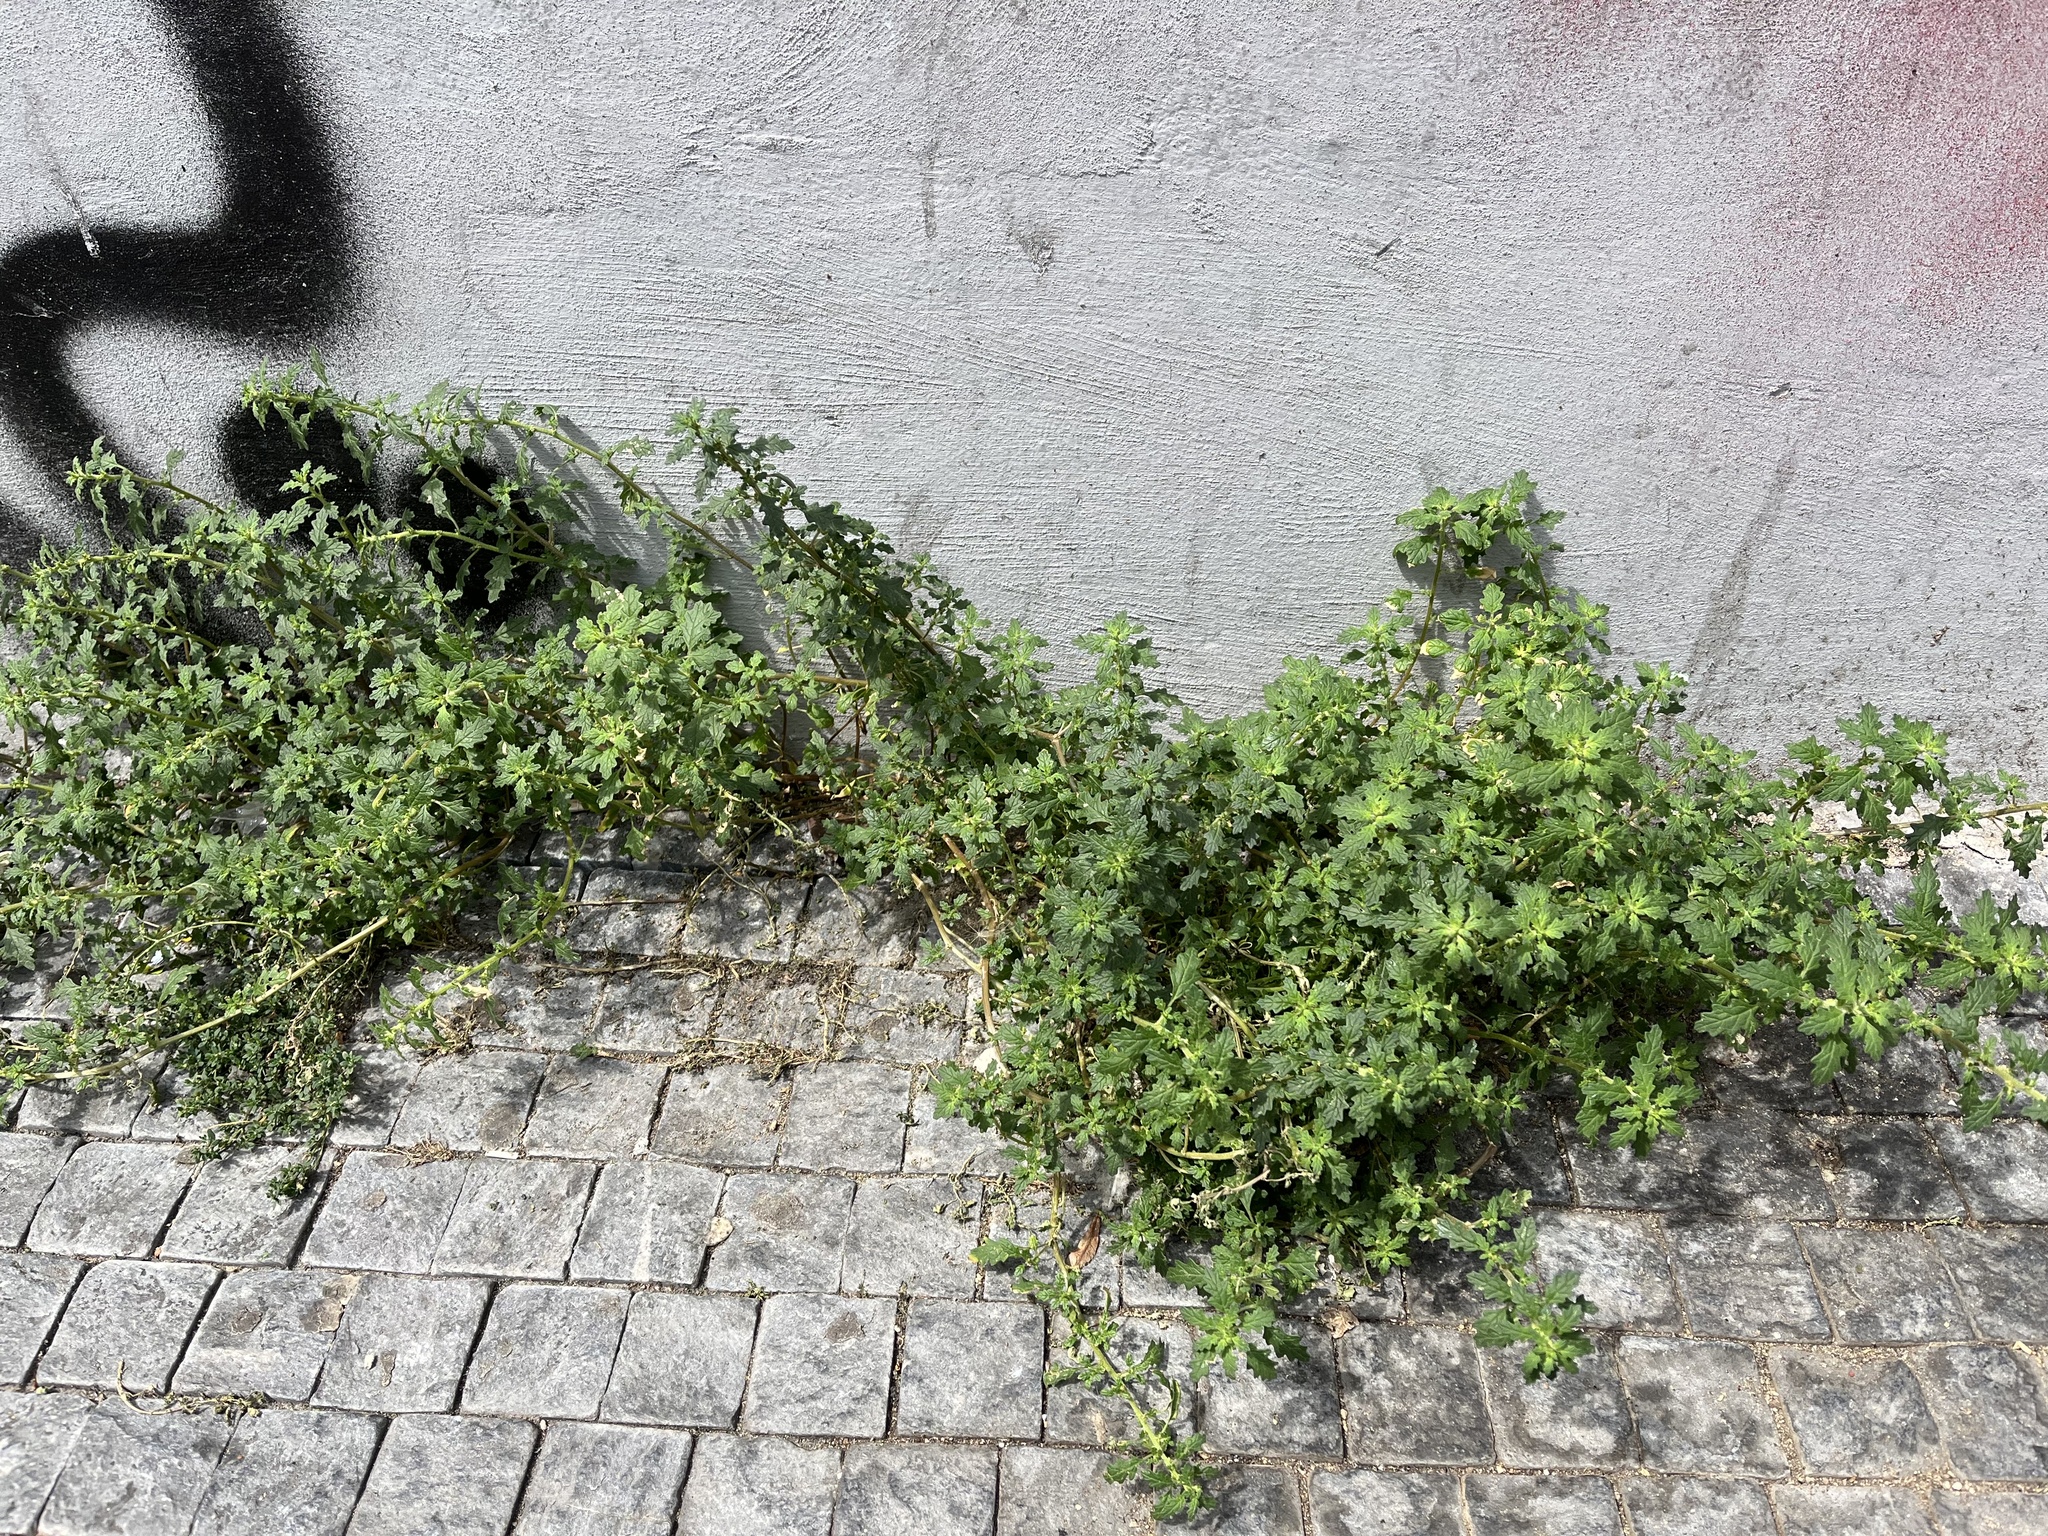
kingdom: Plantae
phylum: Tracheophyta
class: Magnoliopsida
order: Caryophyllales
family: Amaranthaceae
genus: Dysphania
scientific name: Dysphania pumilio
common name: Clammy goosefoot
